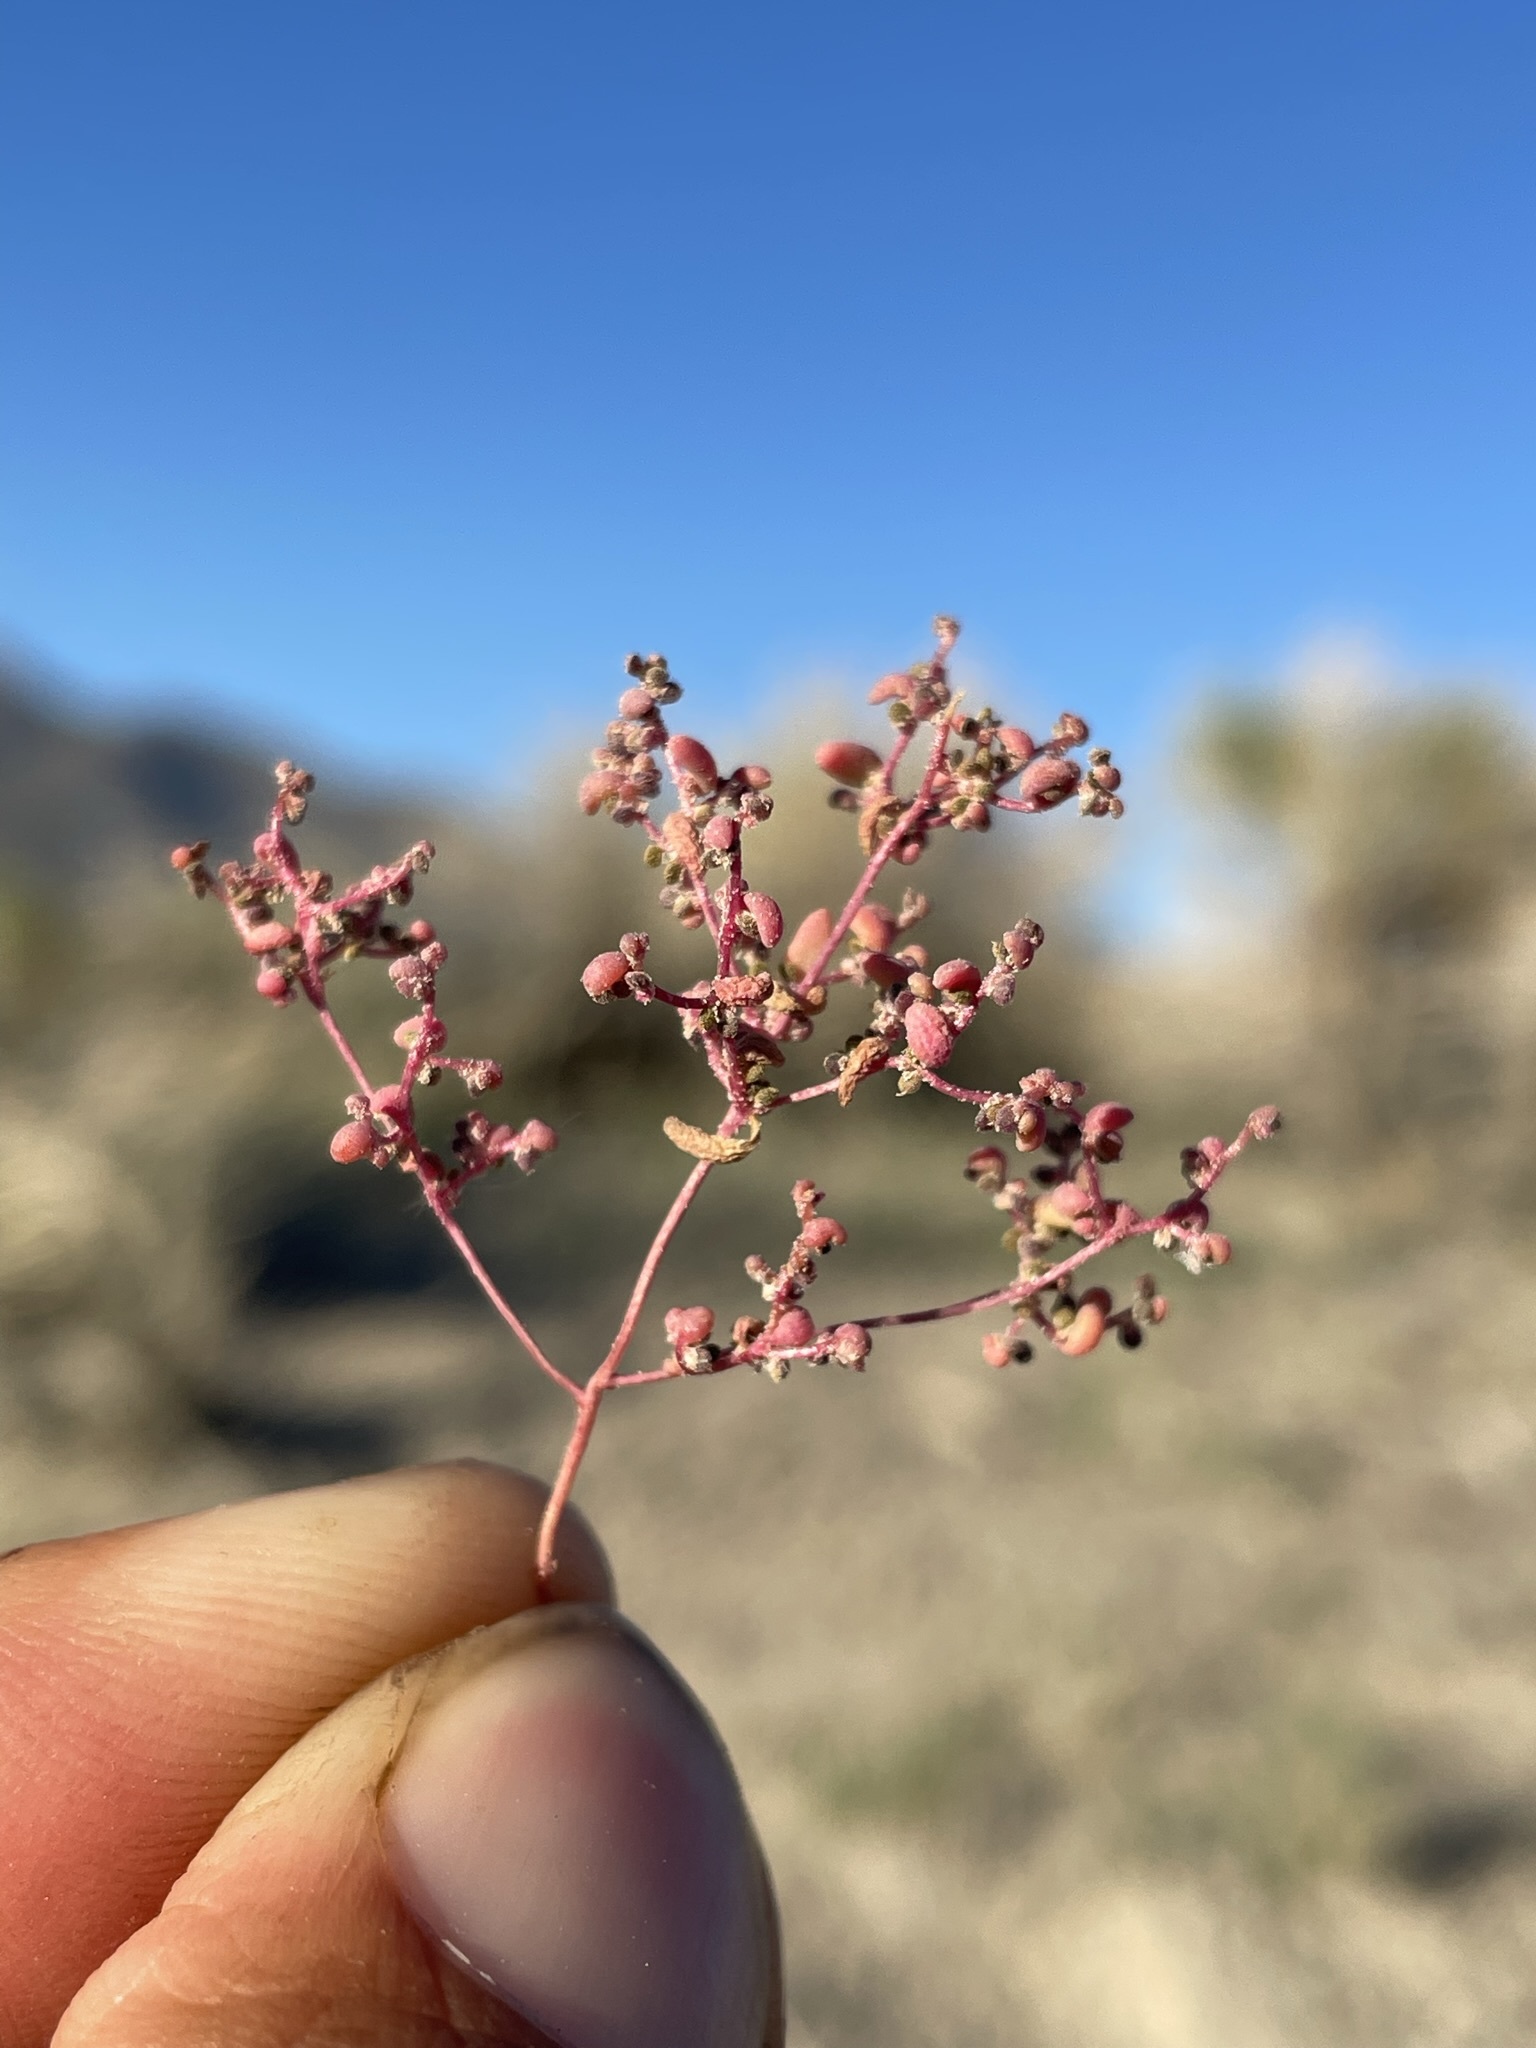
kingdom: Plantae
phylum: Tracheophyta
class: Magnoliopsida
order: Caryophyllales
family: Amaranthaceae
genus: Micromonolepis
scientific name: Micromonolepis pusilla
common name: Dwarf monolepis
